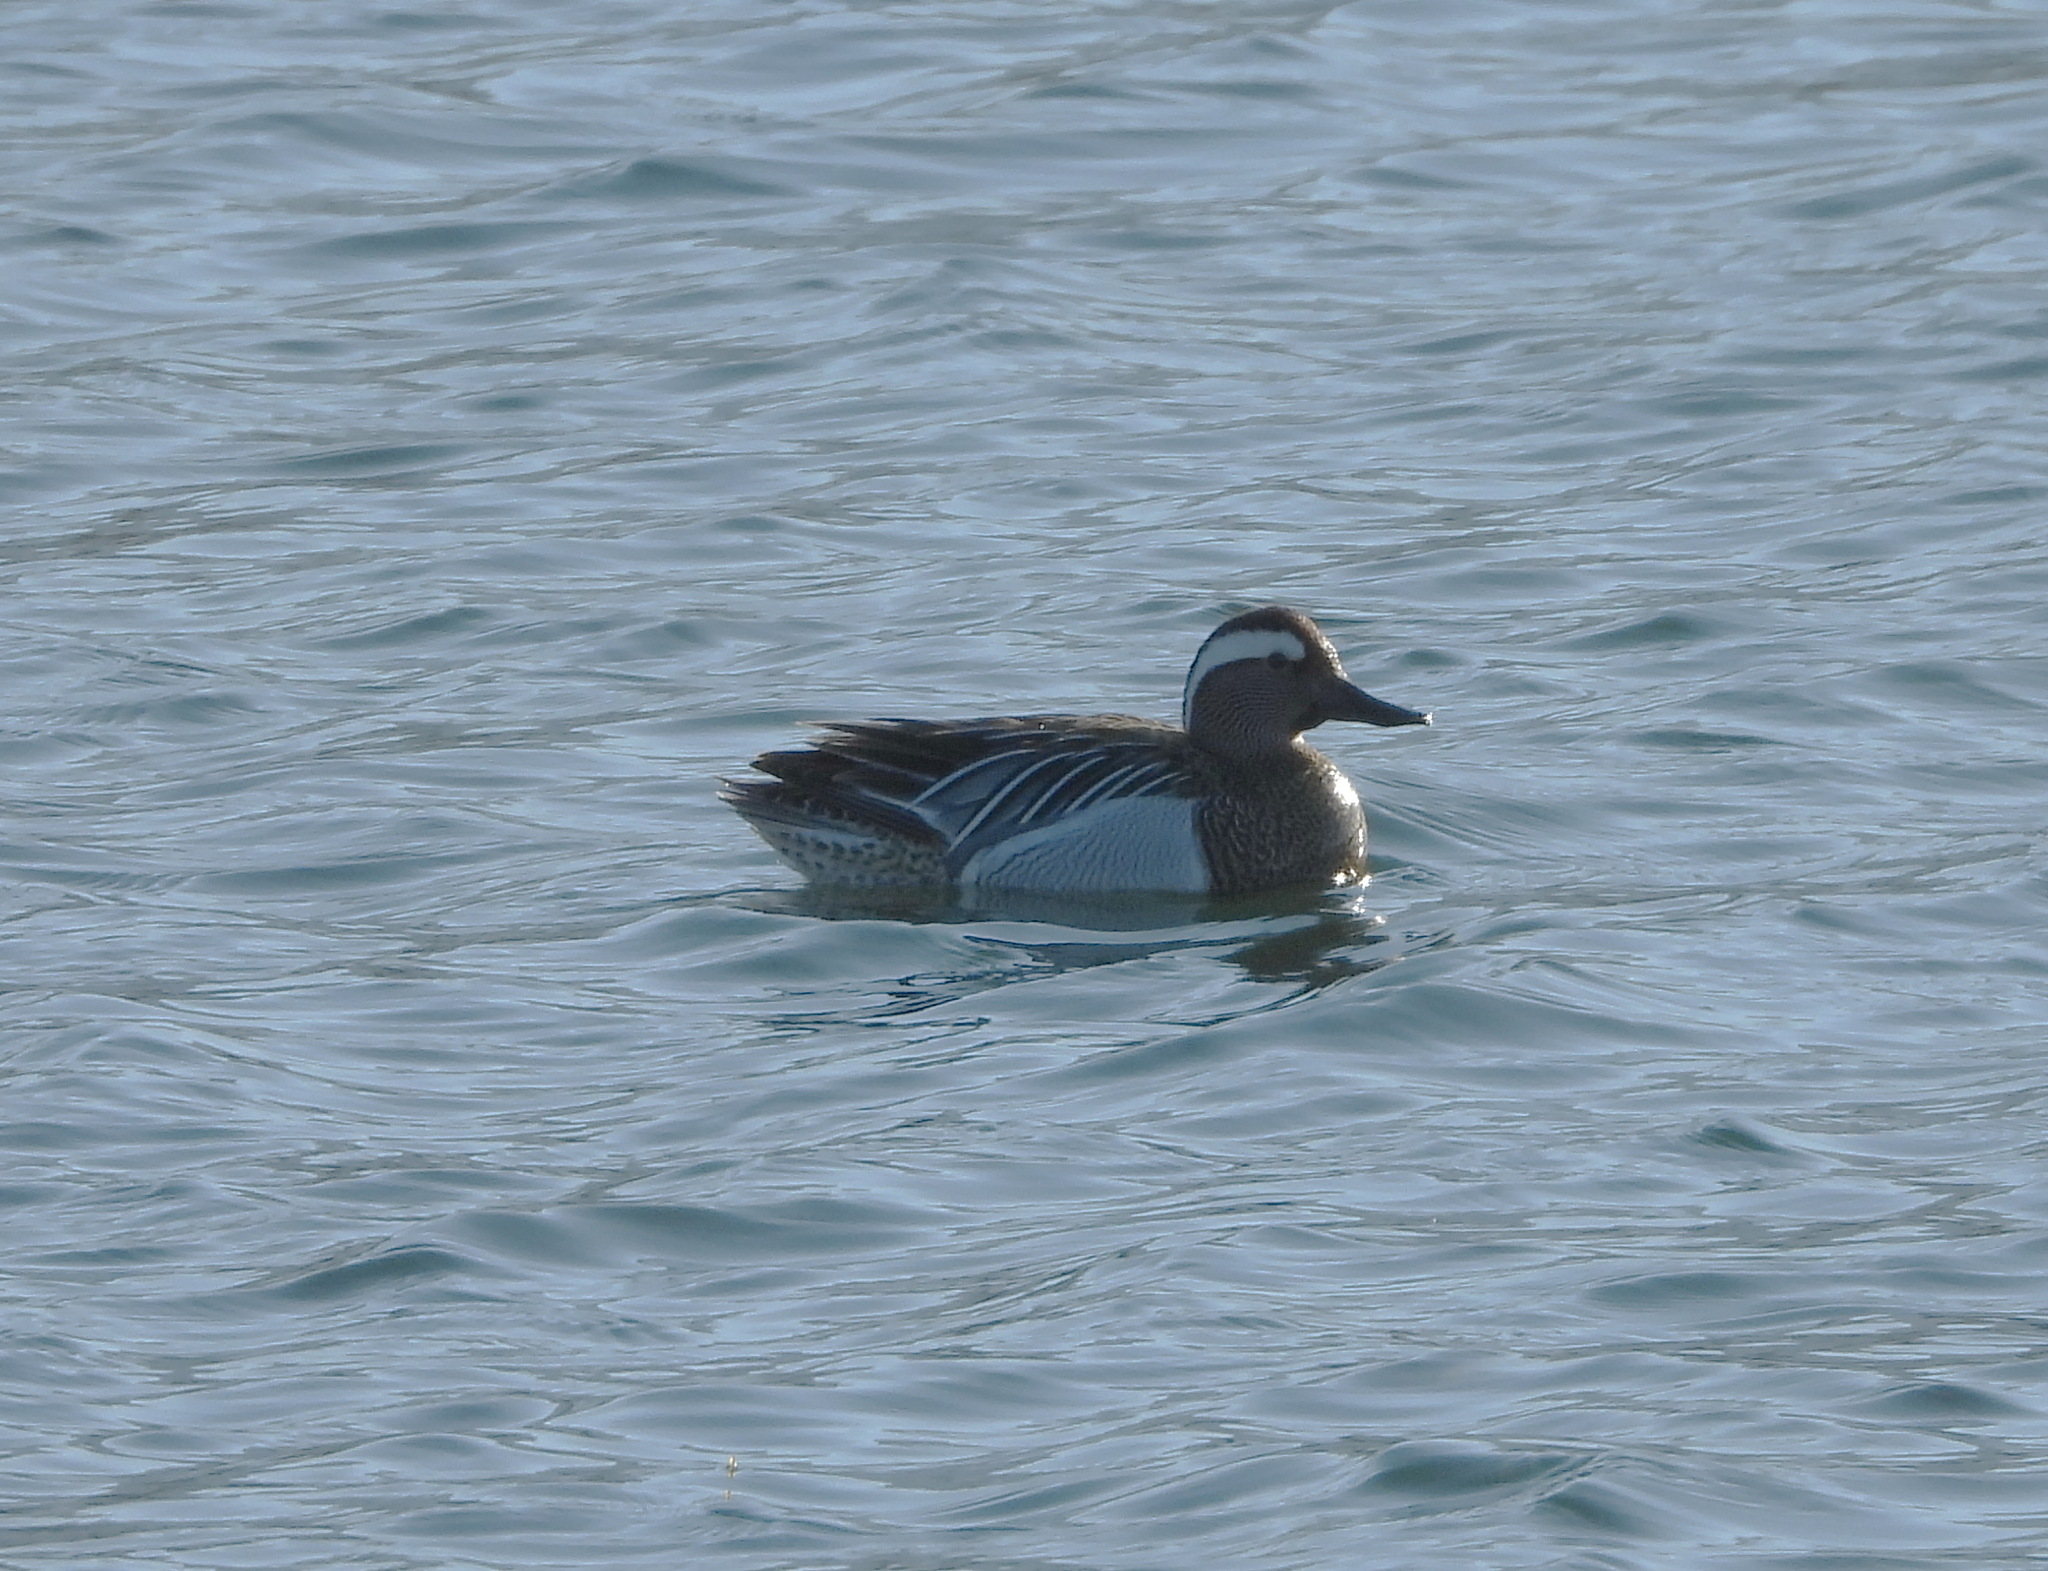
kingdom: Animalia
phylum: Chordata
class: Aves
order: Anseriformes
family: Anatidae
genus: Spatula
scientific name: Spatula querquedula
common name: Garganey
